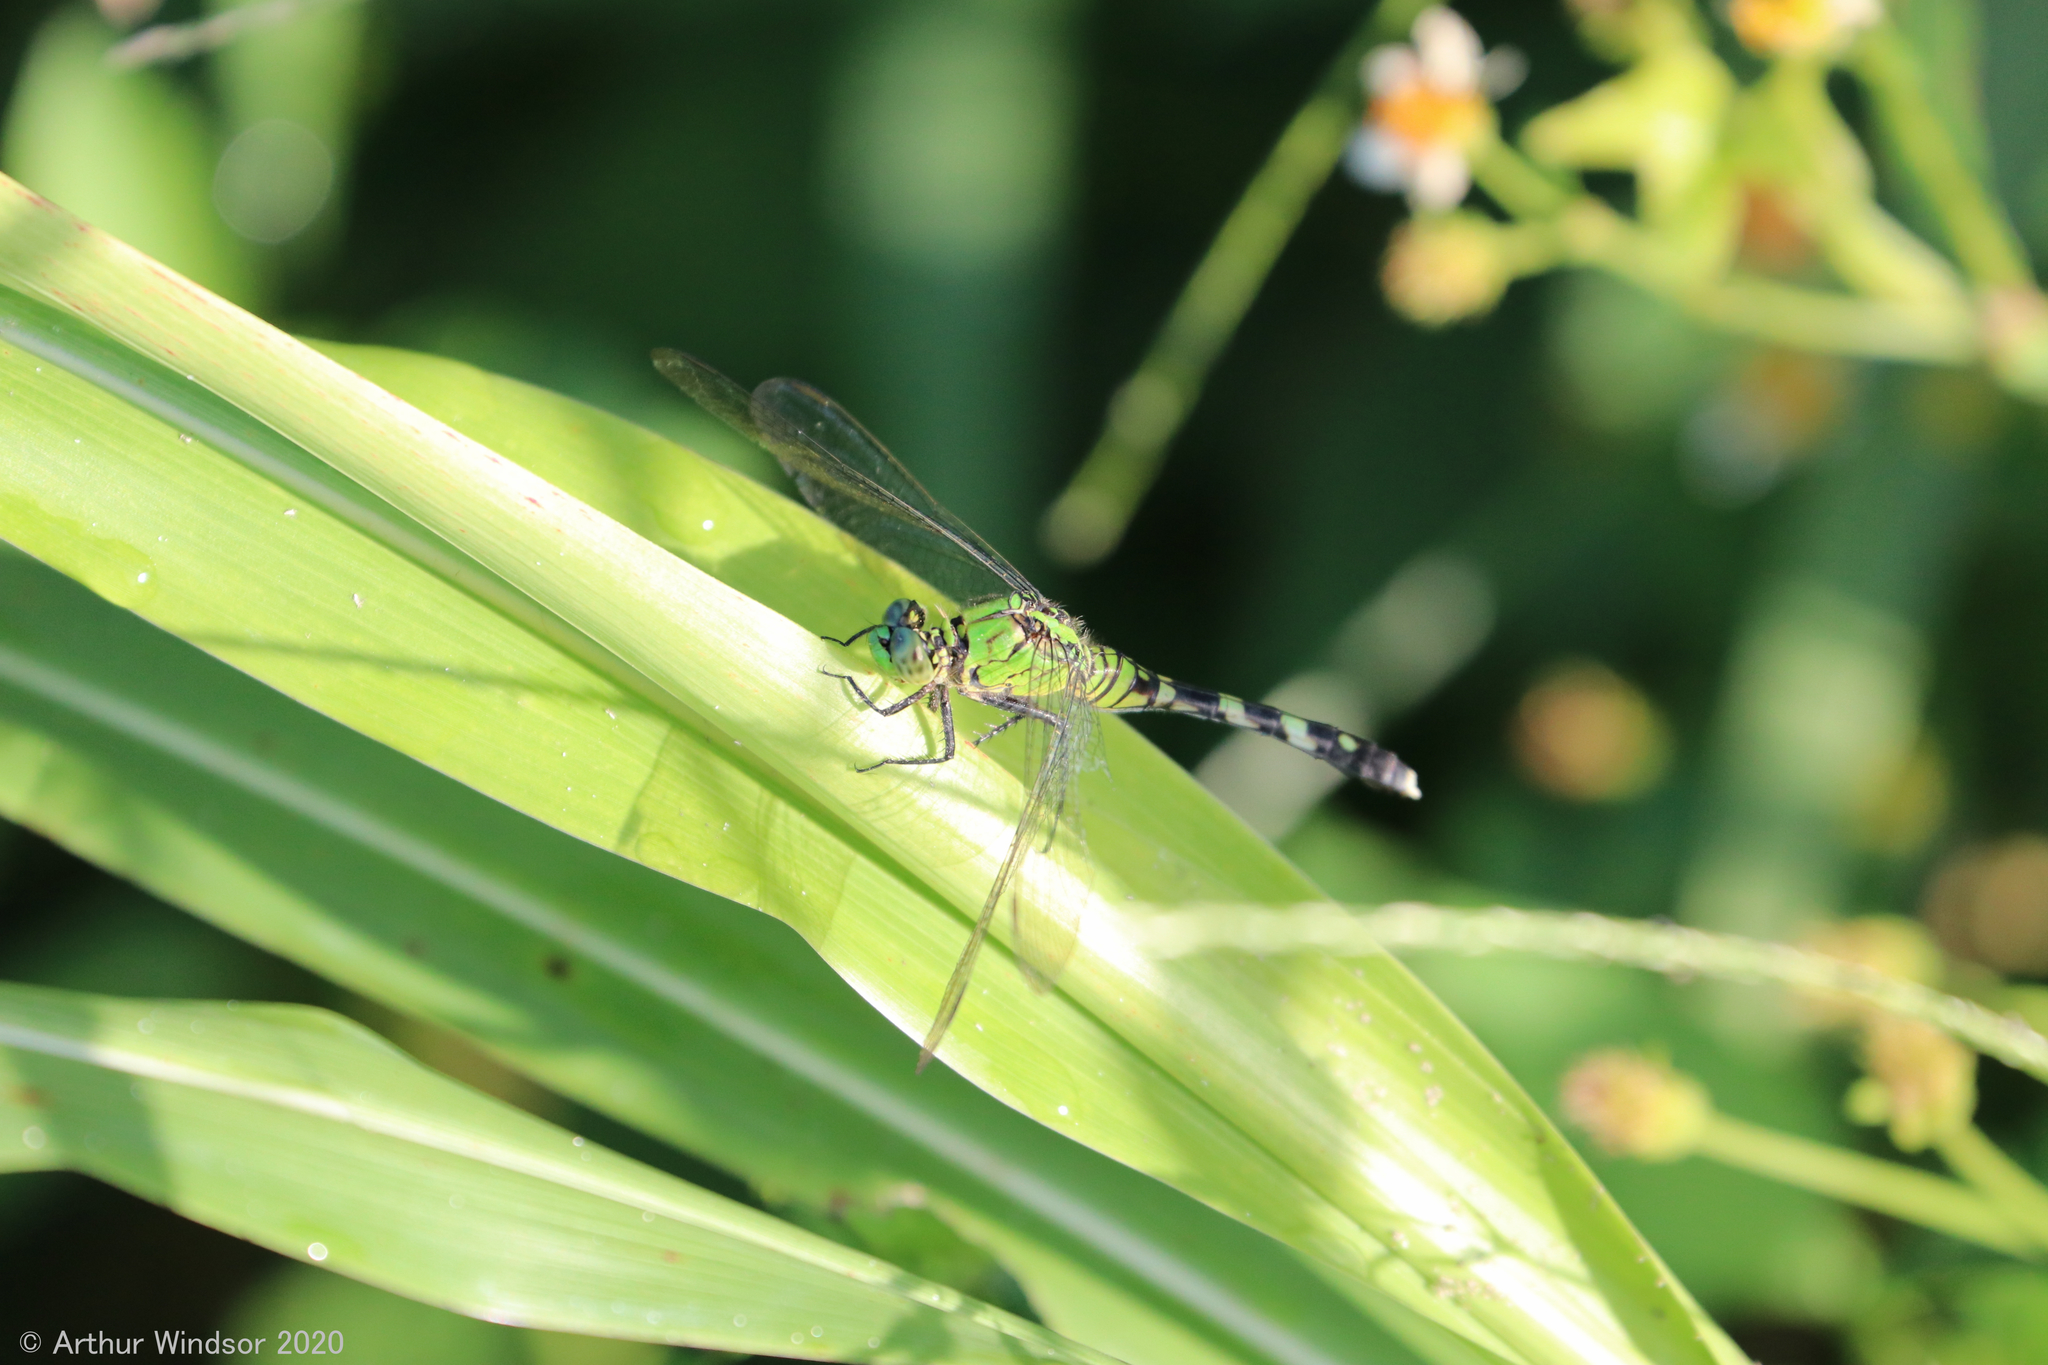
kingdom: Animalia
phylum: Arthropoda
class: Insecta
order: Odonata
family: Libellulidae
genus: Erythemis
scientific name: Erythemis simplicicollis
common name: Eastern pondhawk
